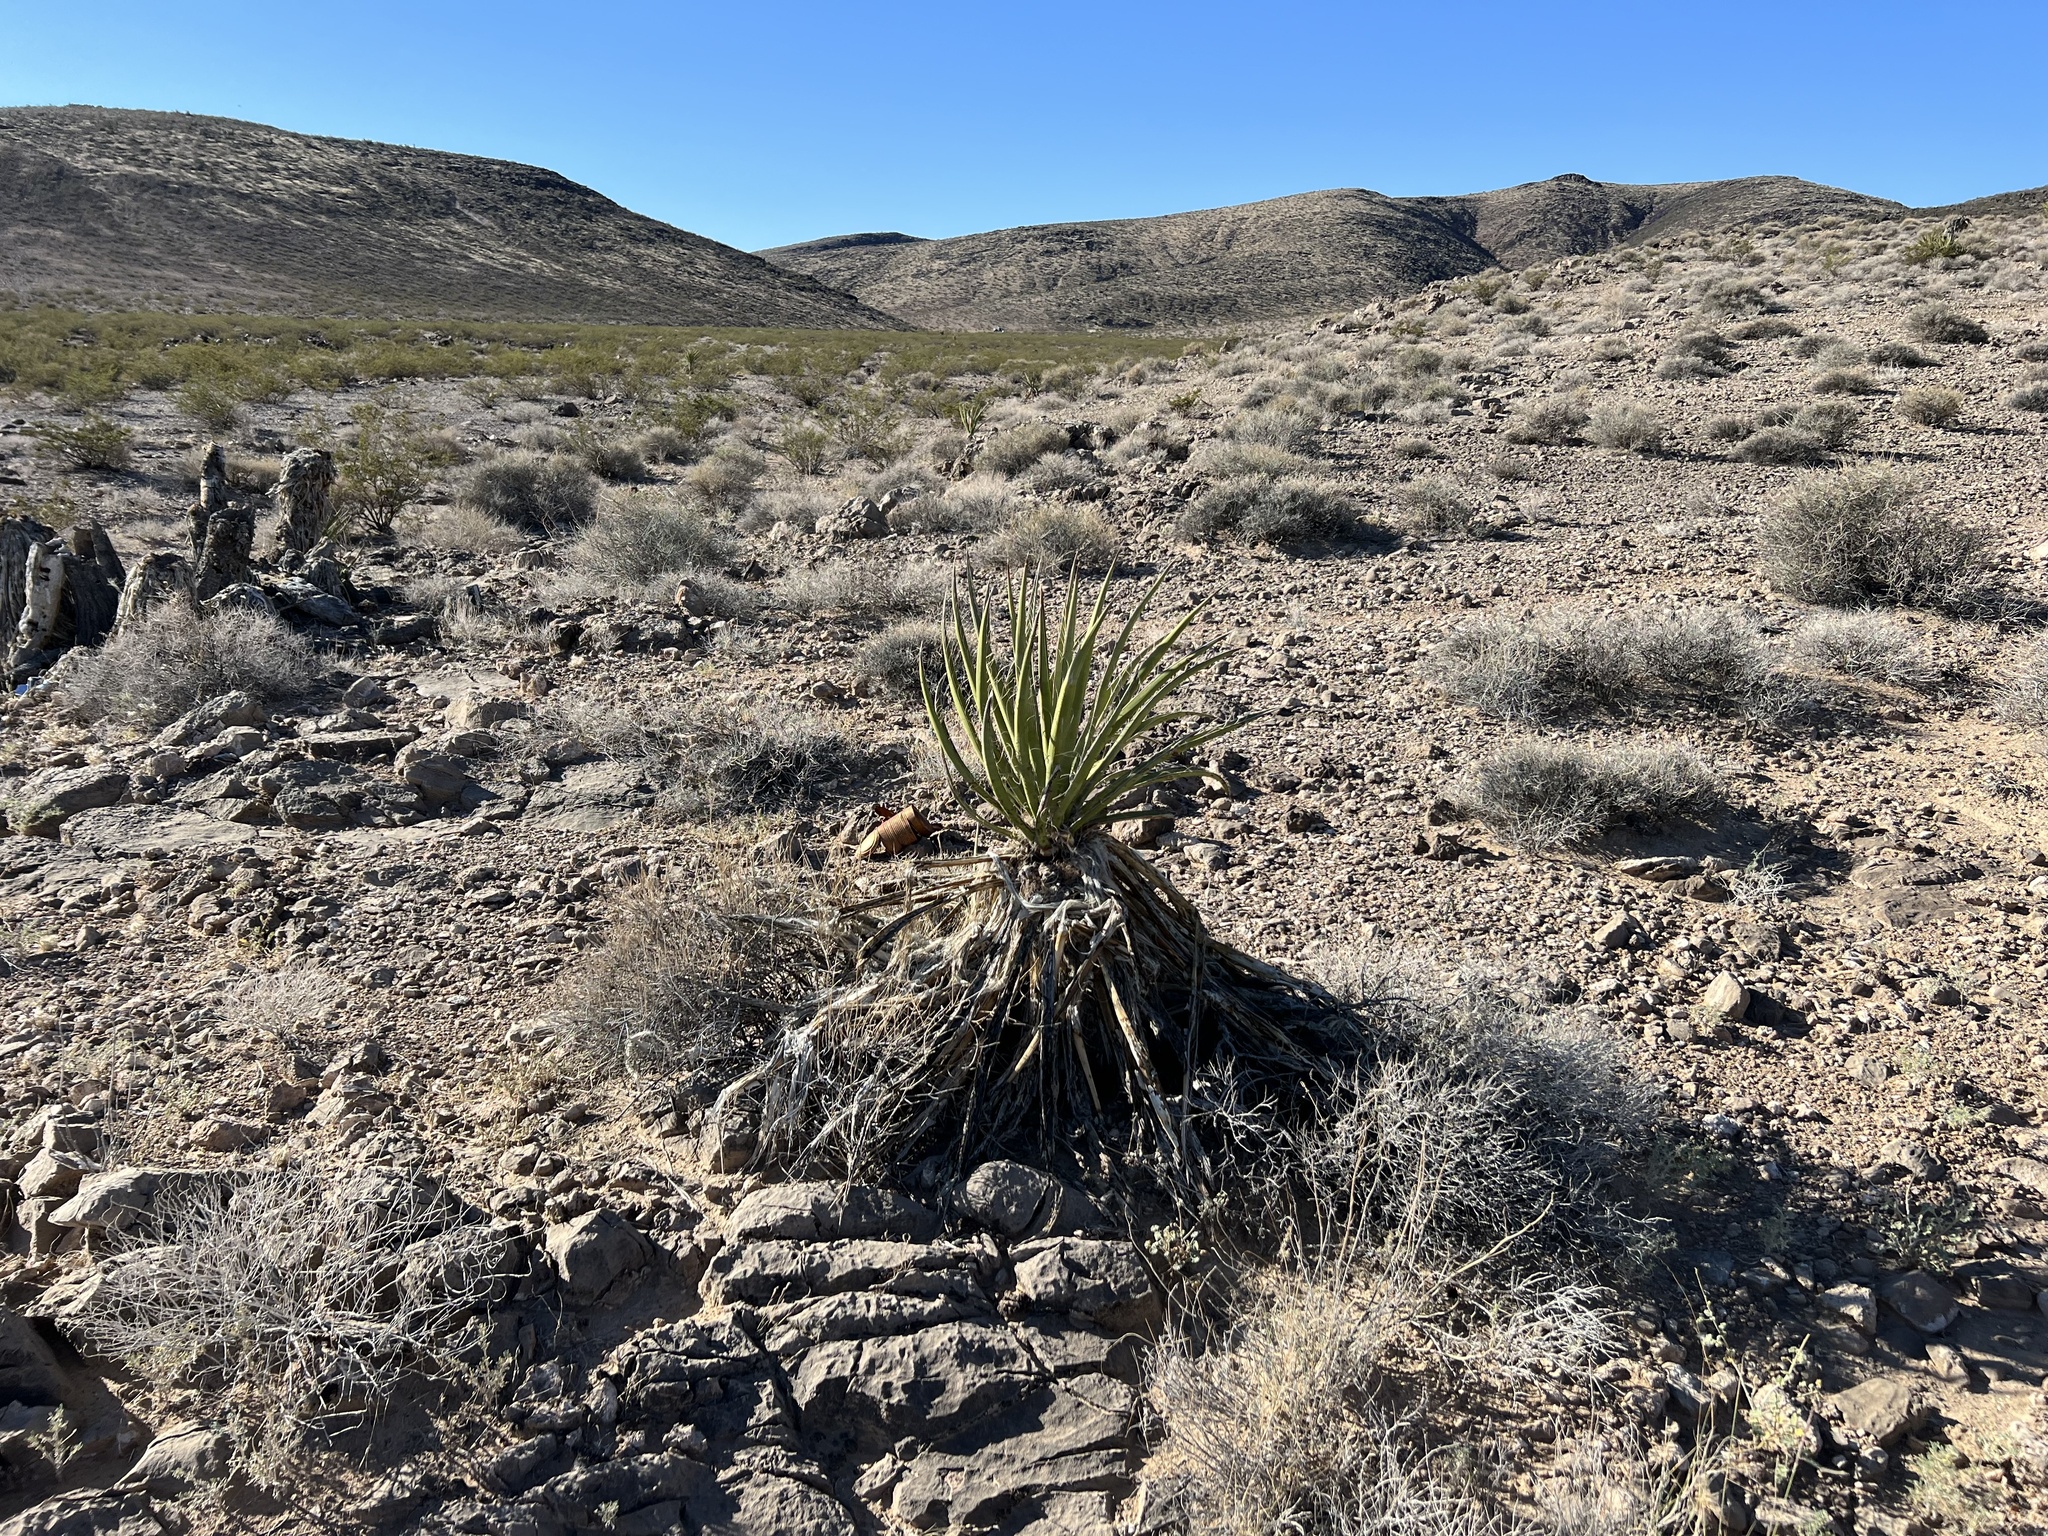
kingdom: Plantae
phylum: Tracheophyta
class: Liliopsida
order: Asparagales
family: Asparagaceae
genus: Yucca
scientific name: Yucca schidigera
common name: Mojave yucca
